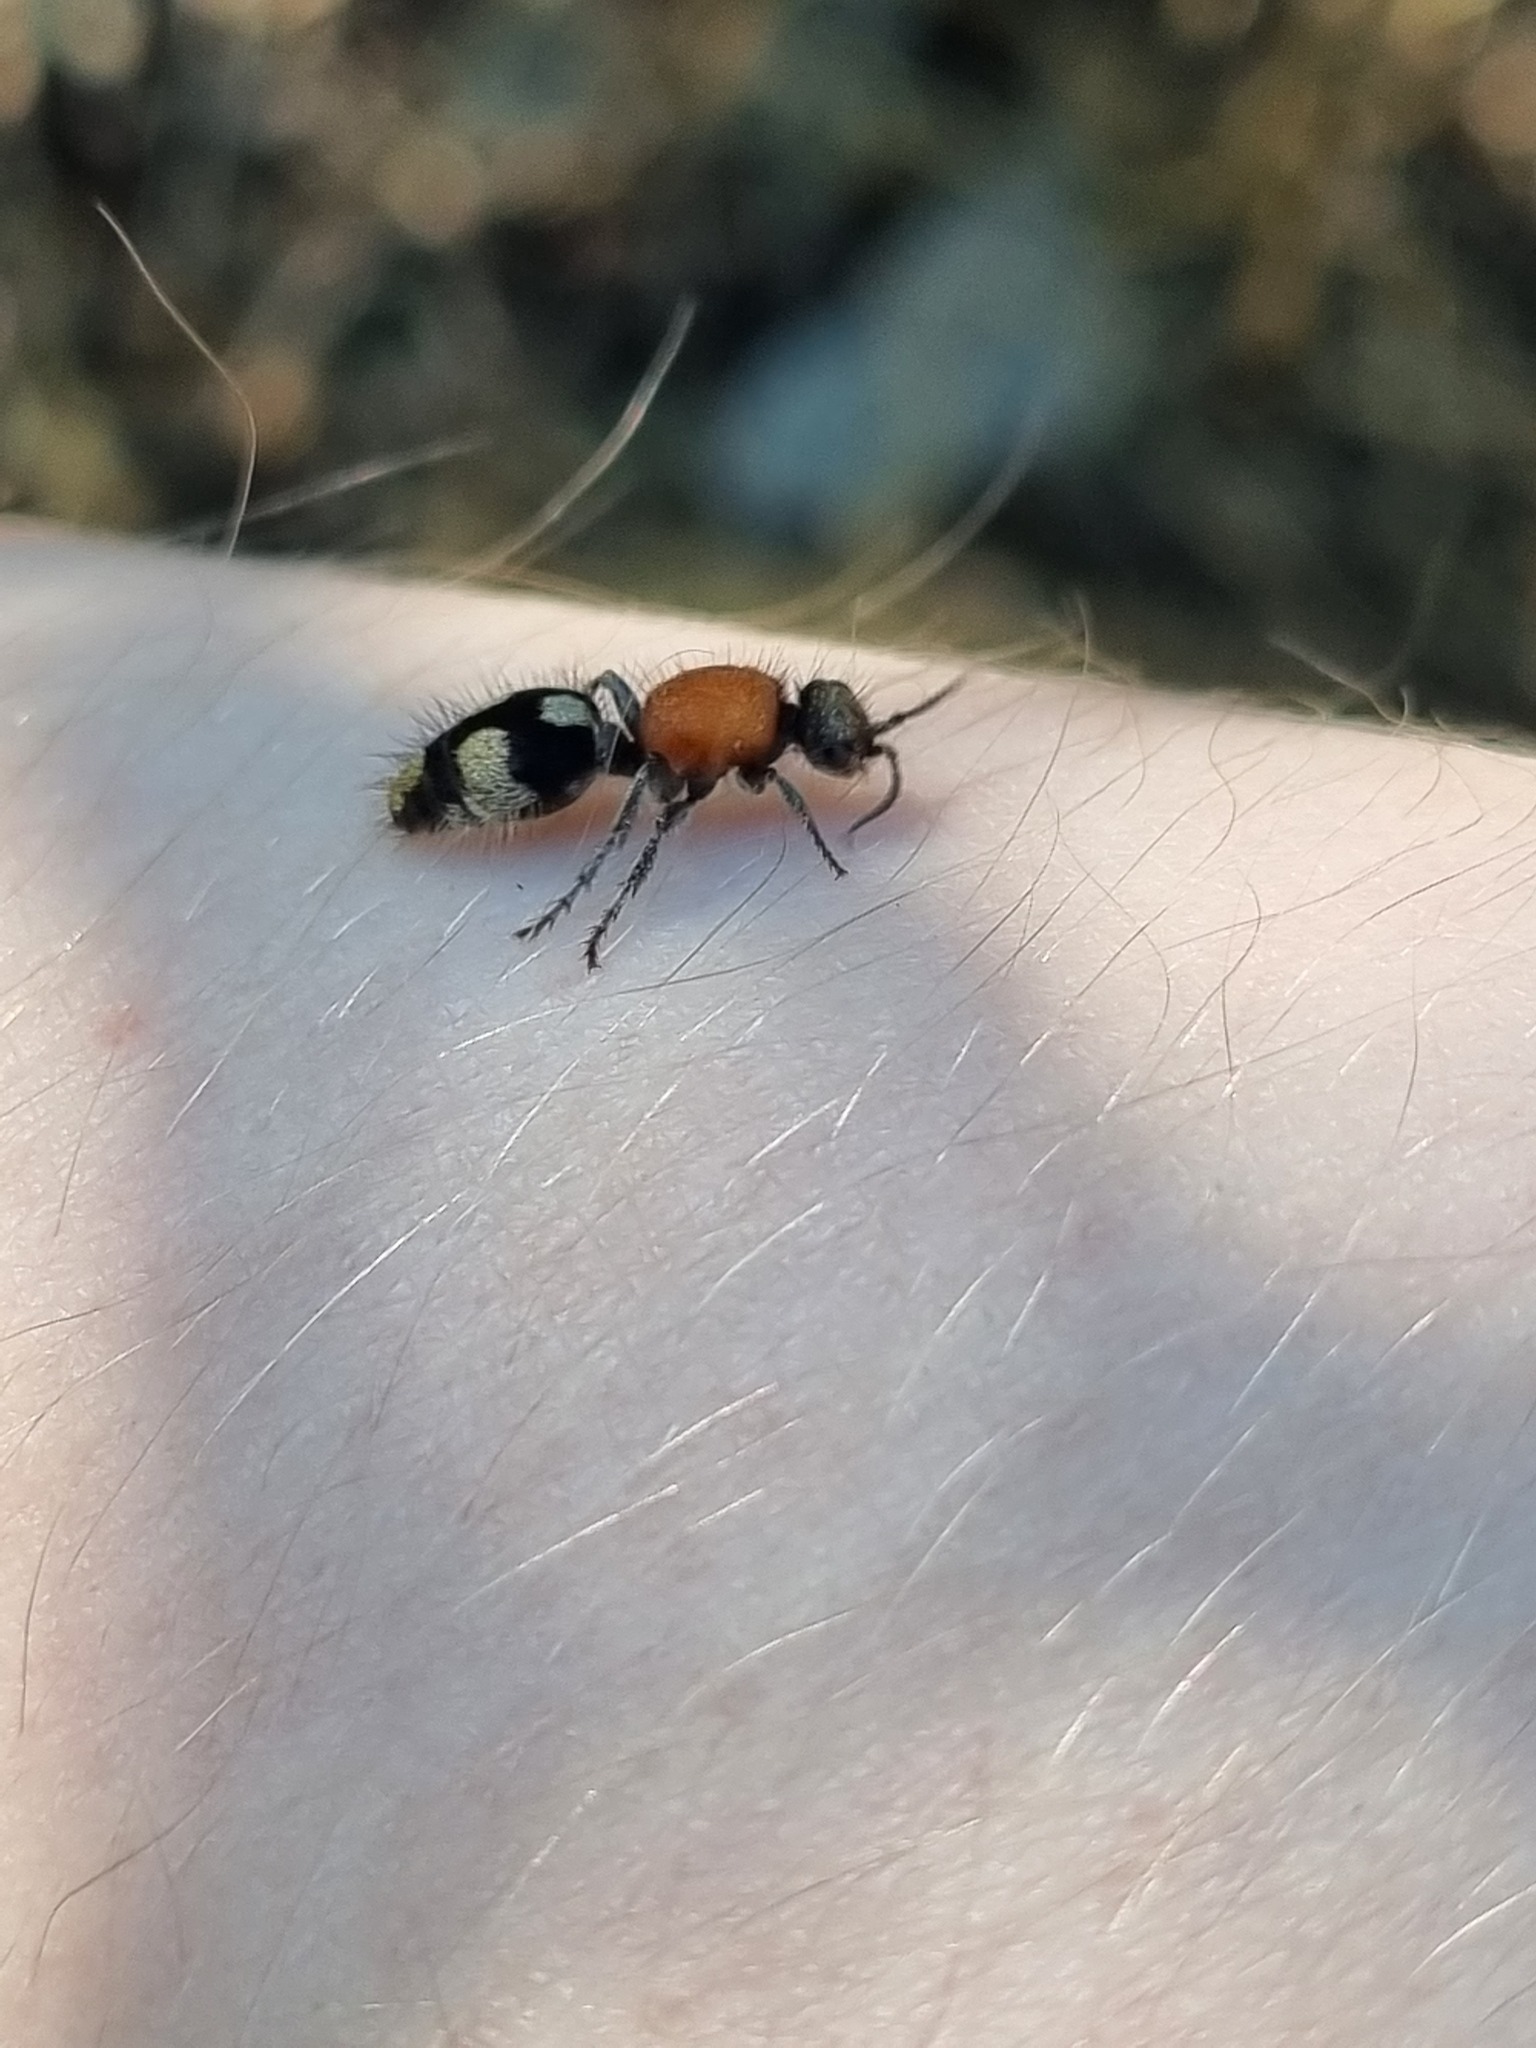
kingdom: Animalia
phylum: Arthropoda
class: Insecta
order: Hymenoptera
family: Mutillidae
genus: Dasylabris
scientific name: Dasylabris maura
